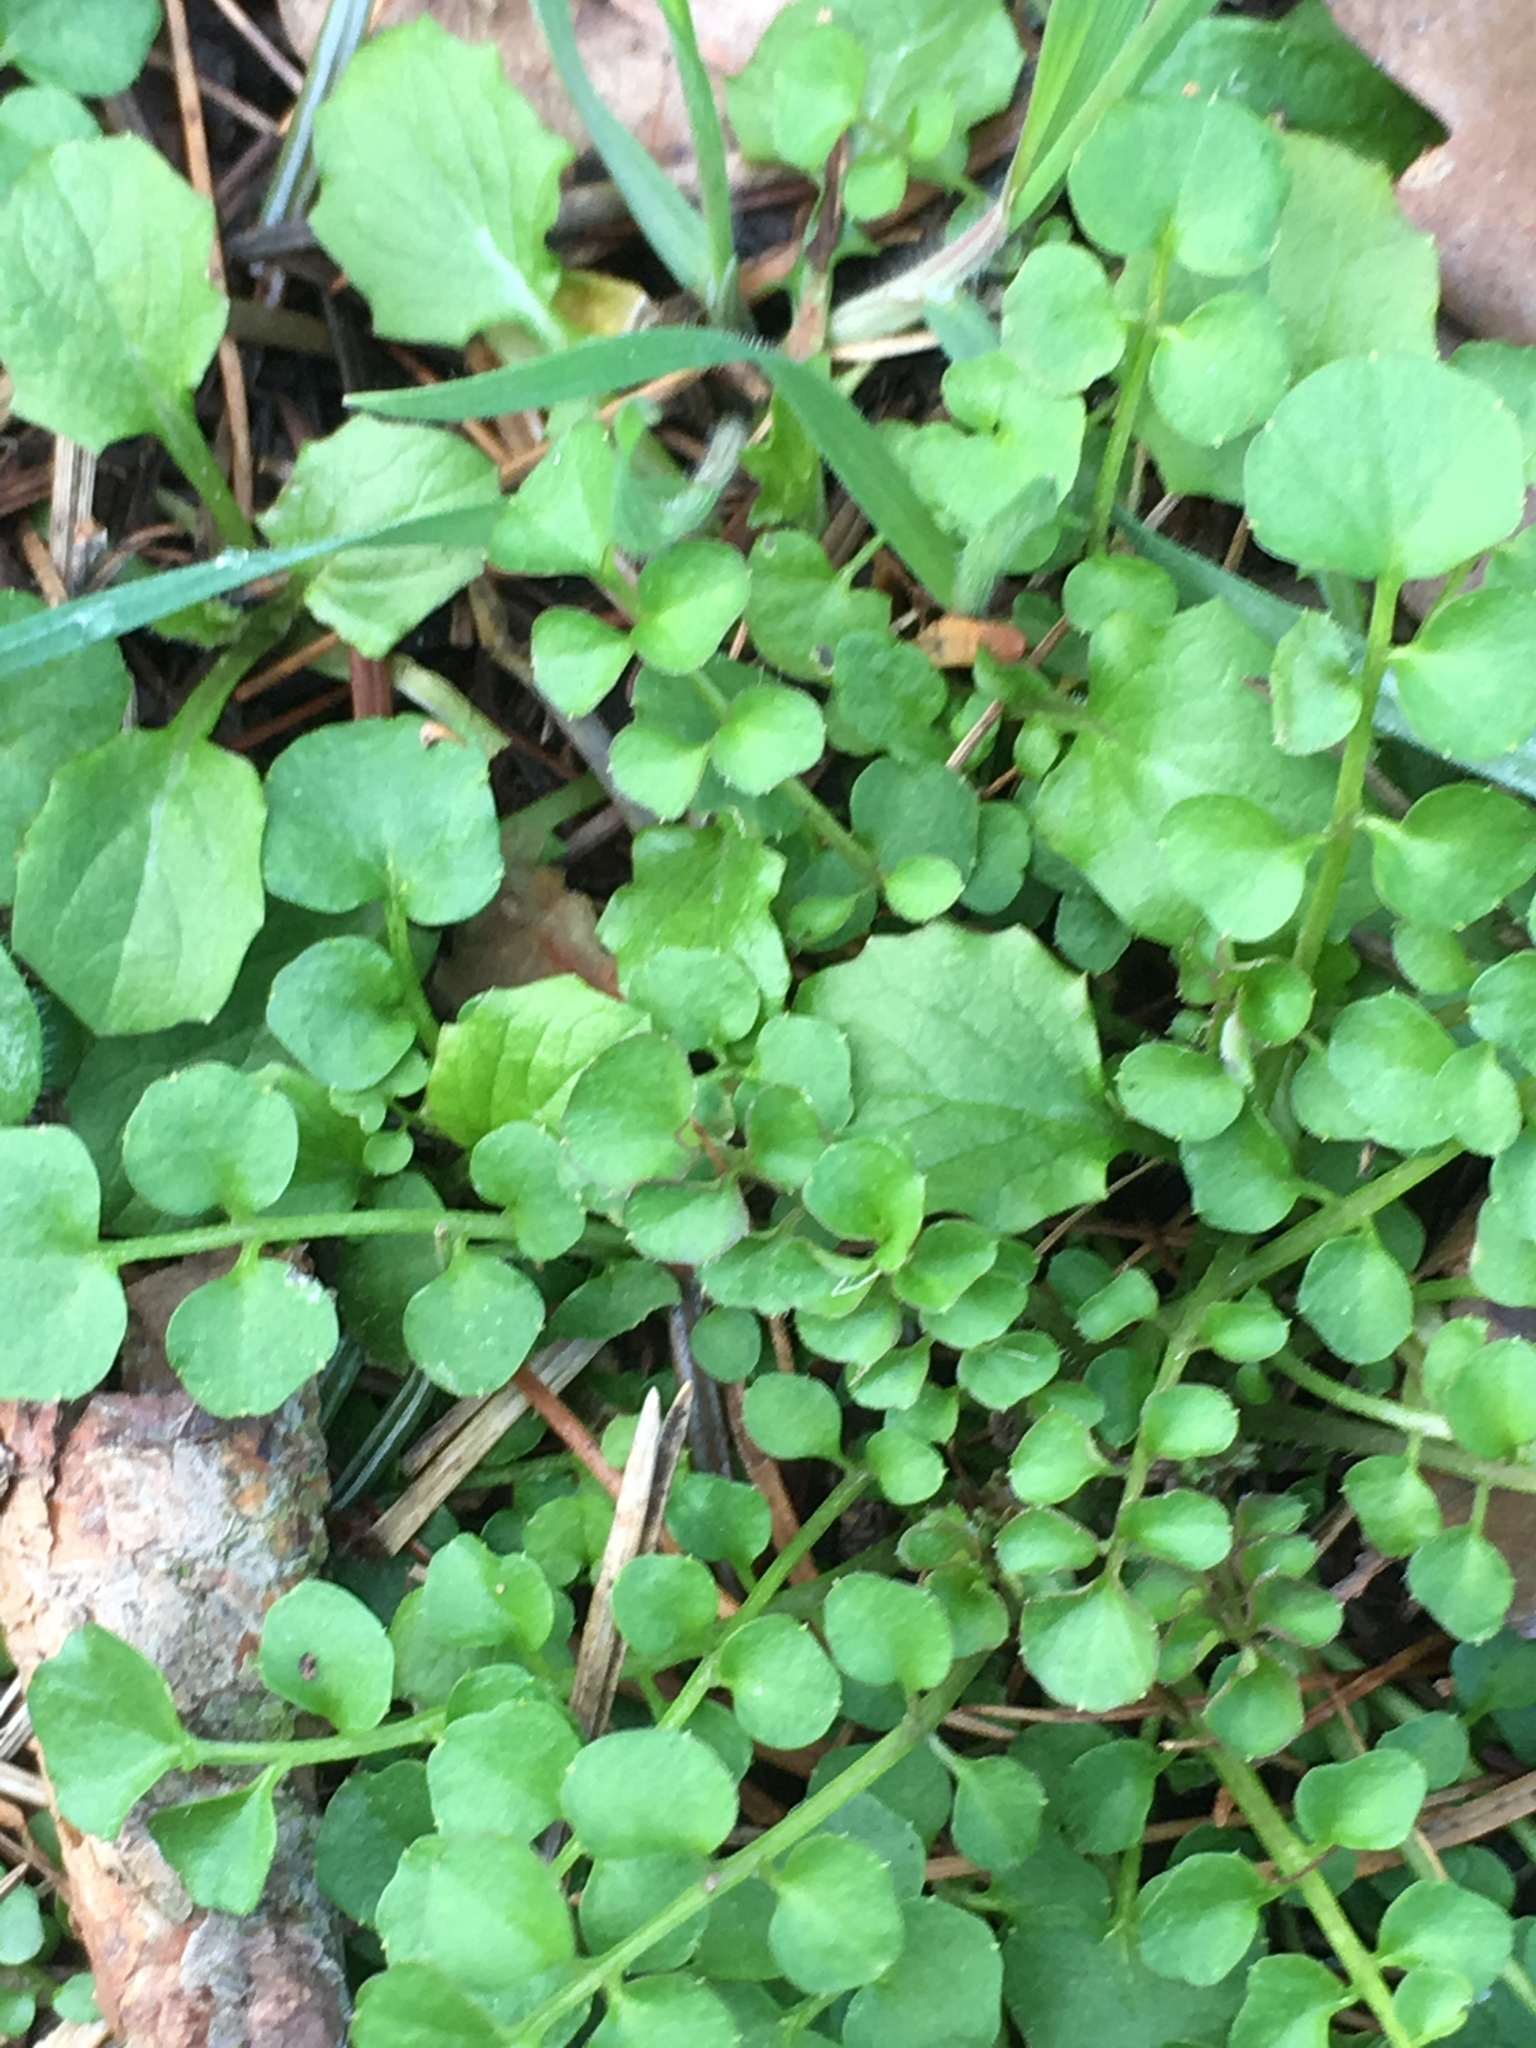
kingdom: Plantae
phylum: Tracheophyta
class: Magnoliopsida
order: Brassicales
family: Brassicaceae
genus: Cardamine
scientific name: Cardamine hirsuta
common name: Hairy bittercress
